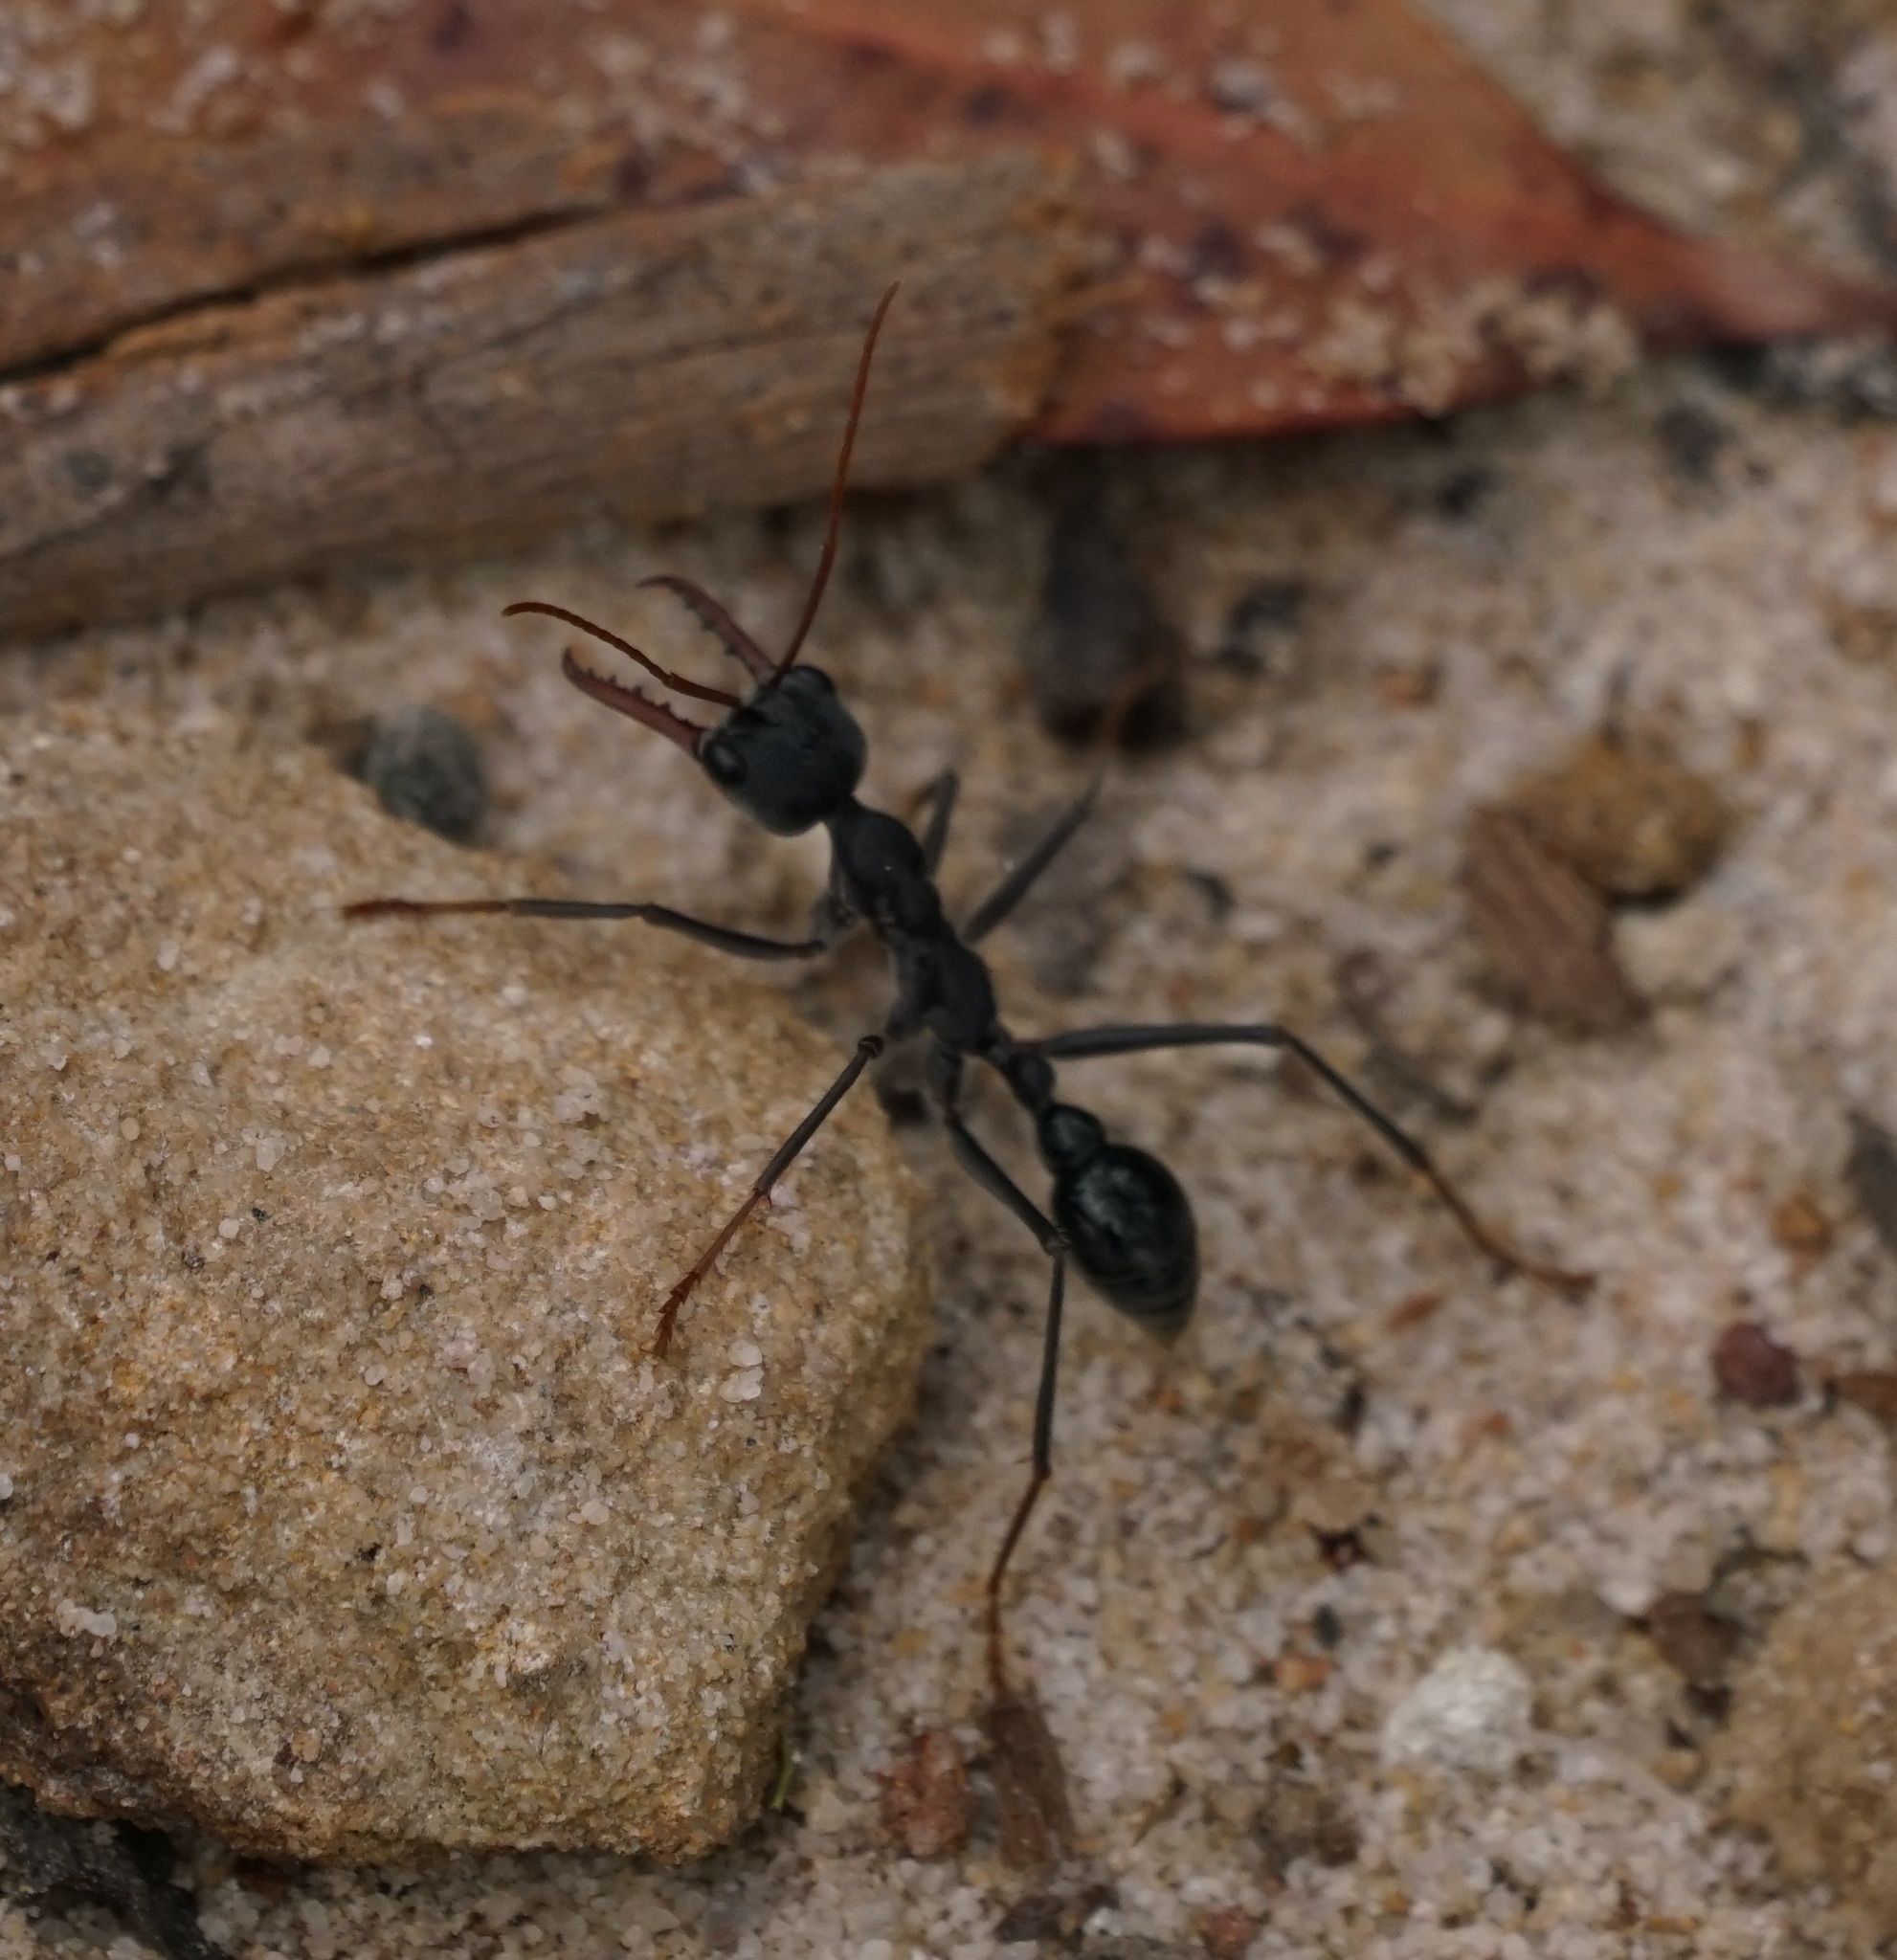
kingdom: Animalia
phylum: Arthropoda
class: Insecta
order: Hymenoptera
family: Formicidae
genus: Myrmecia
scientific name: Myrmecia simillima
